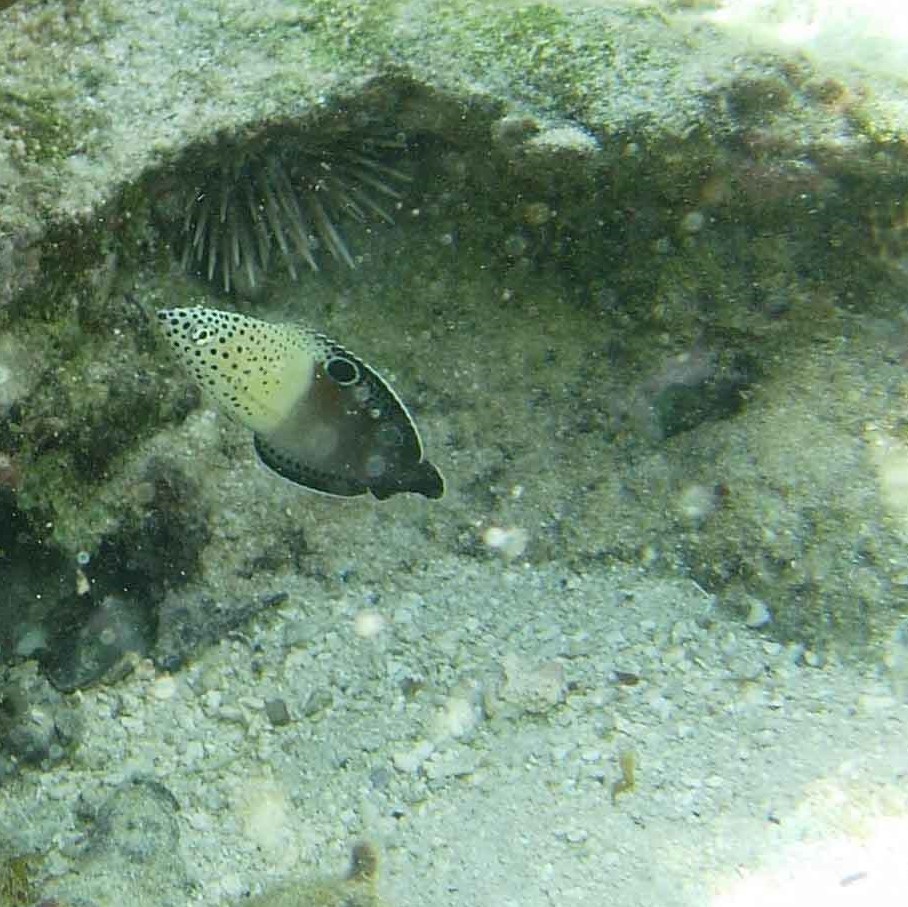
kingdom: Animalia
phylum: Chordata
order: Perciformes
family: Labridae
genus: Coris
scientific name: Coris aygula
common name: Clown coris
